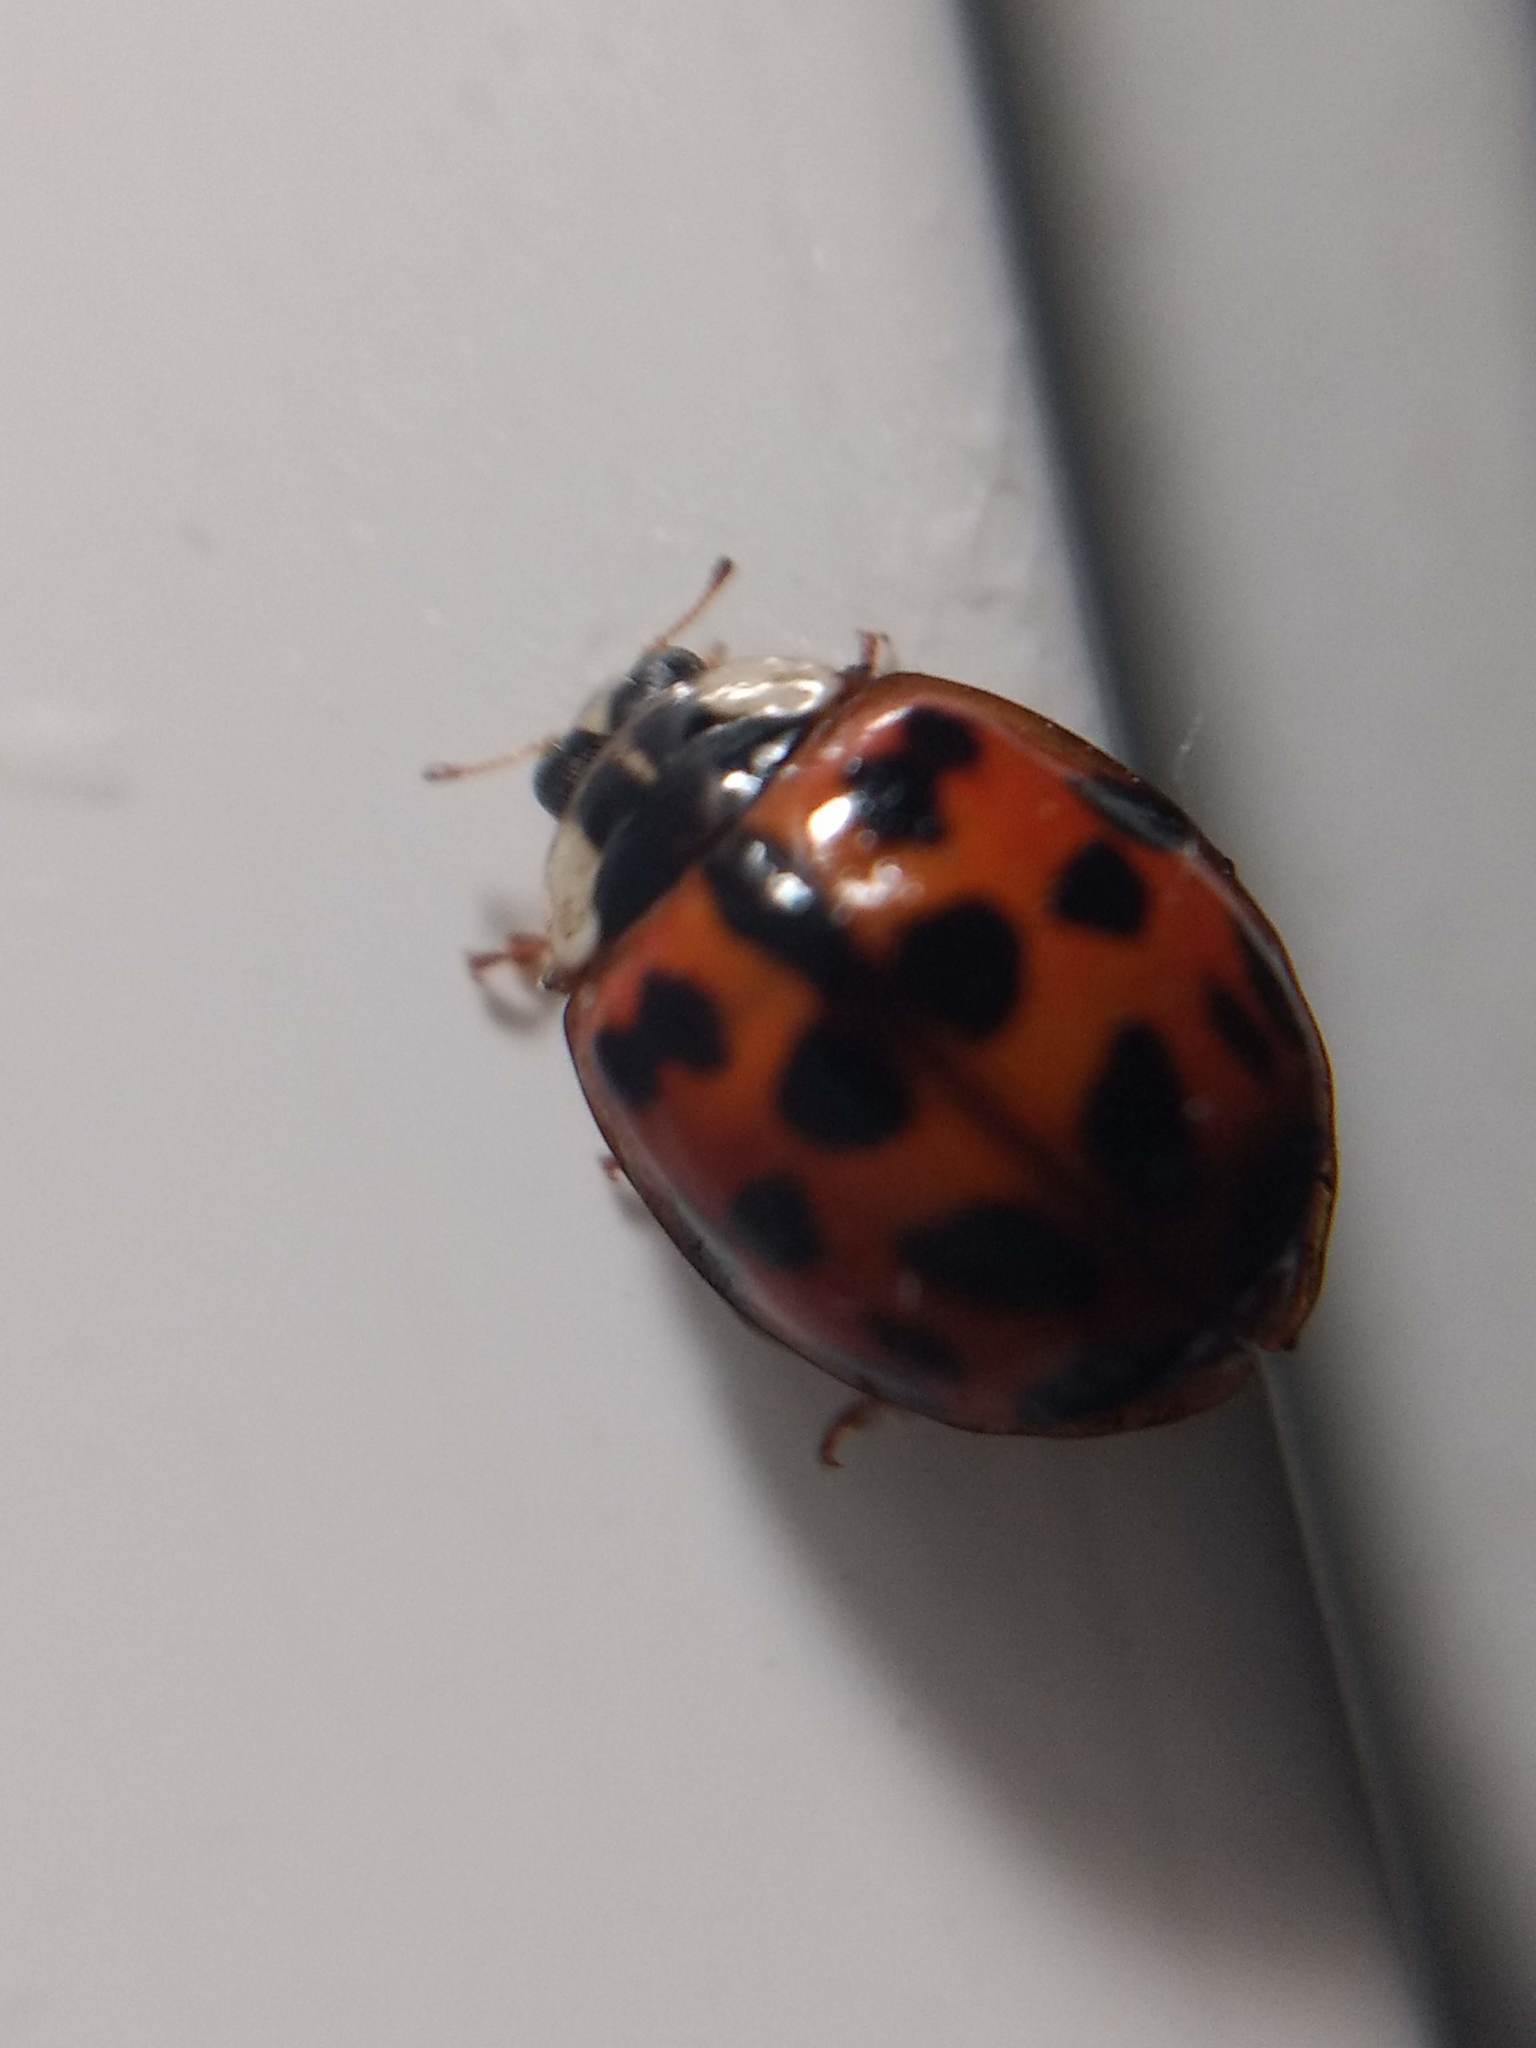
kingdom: Animalia
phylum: Arthropoda
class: Insecta
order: Coleoptera
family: Coccinellidae
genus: Harmonia
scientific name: Harmonia axyridis
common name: Harlequin ladybird
